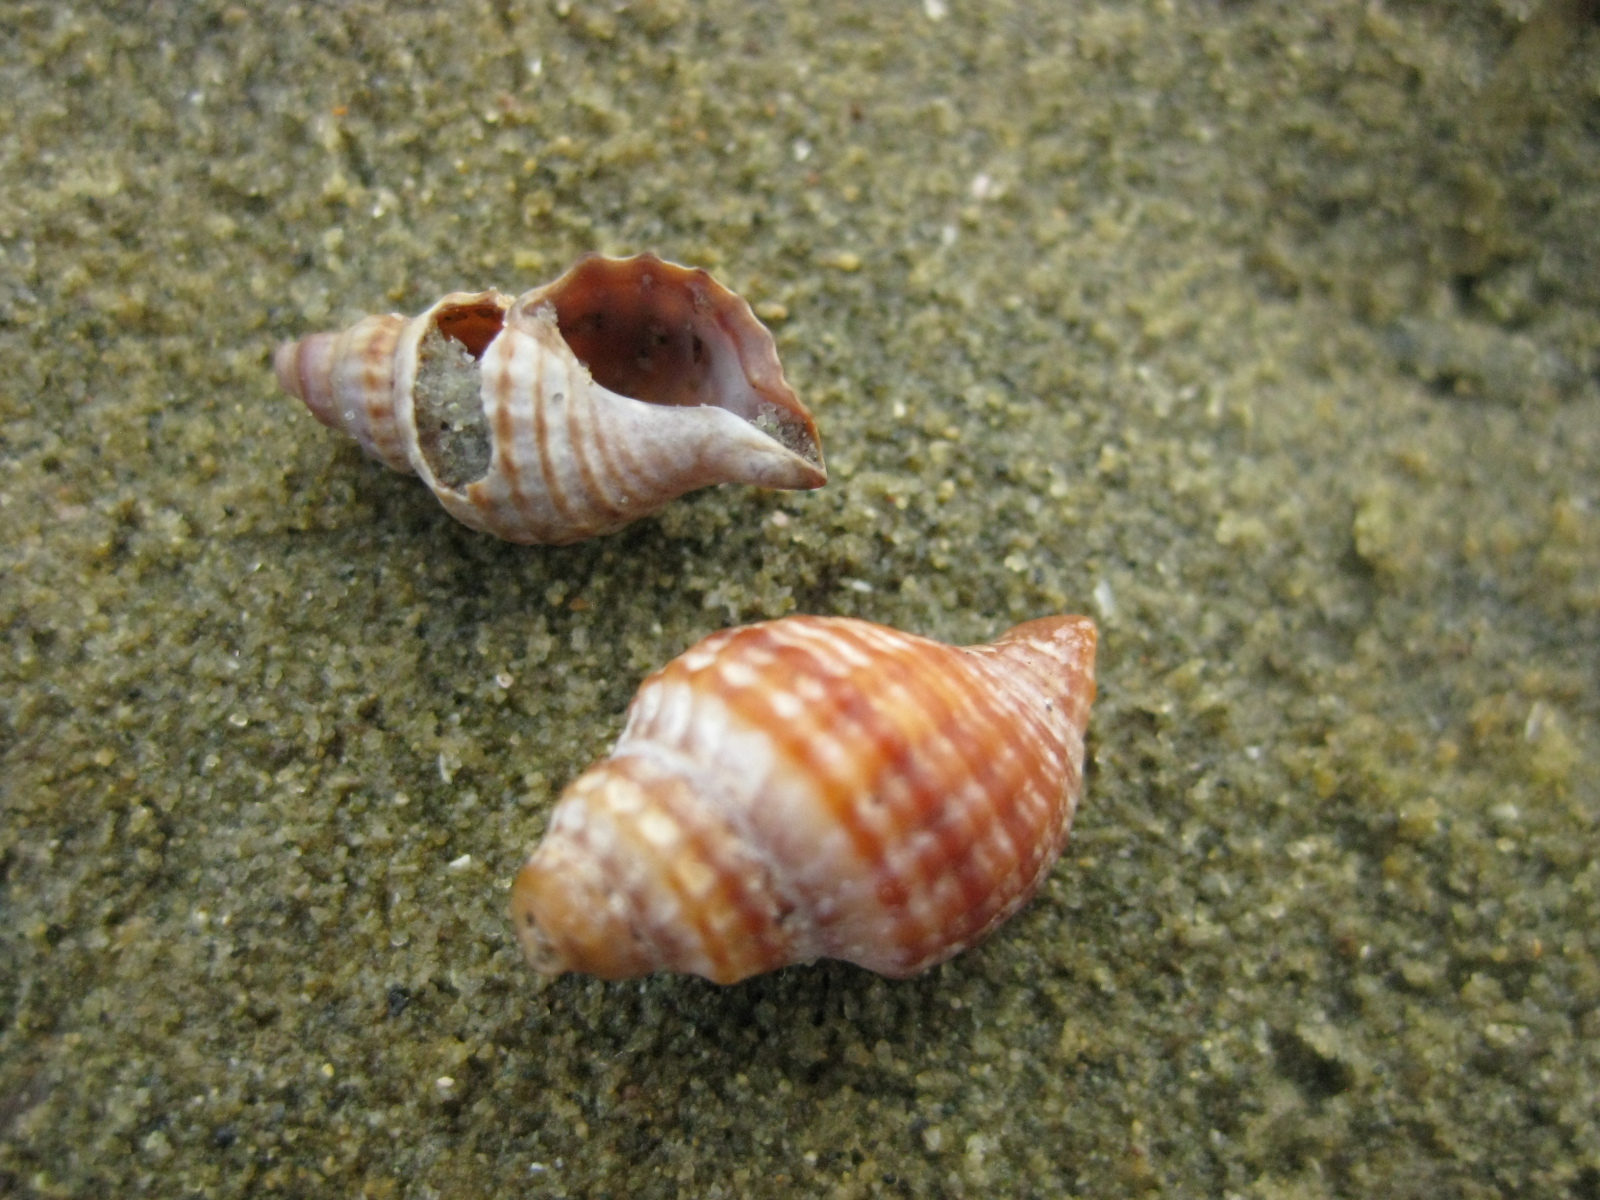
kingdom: Animalia
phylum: Mollusca
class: Gastropoda
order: Neogastropoda
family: Muricidae
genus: Xymene
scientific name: Xymene plebeius
